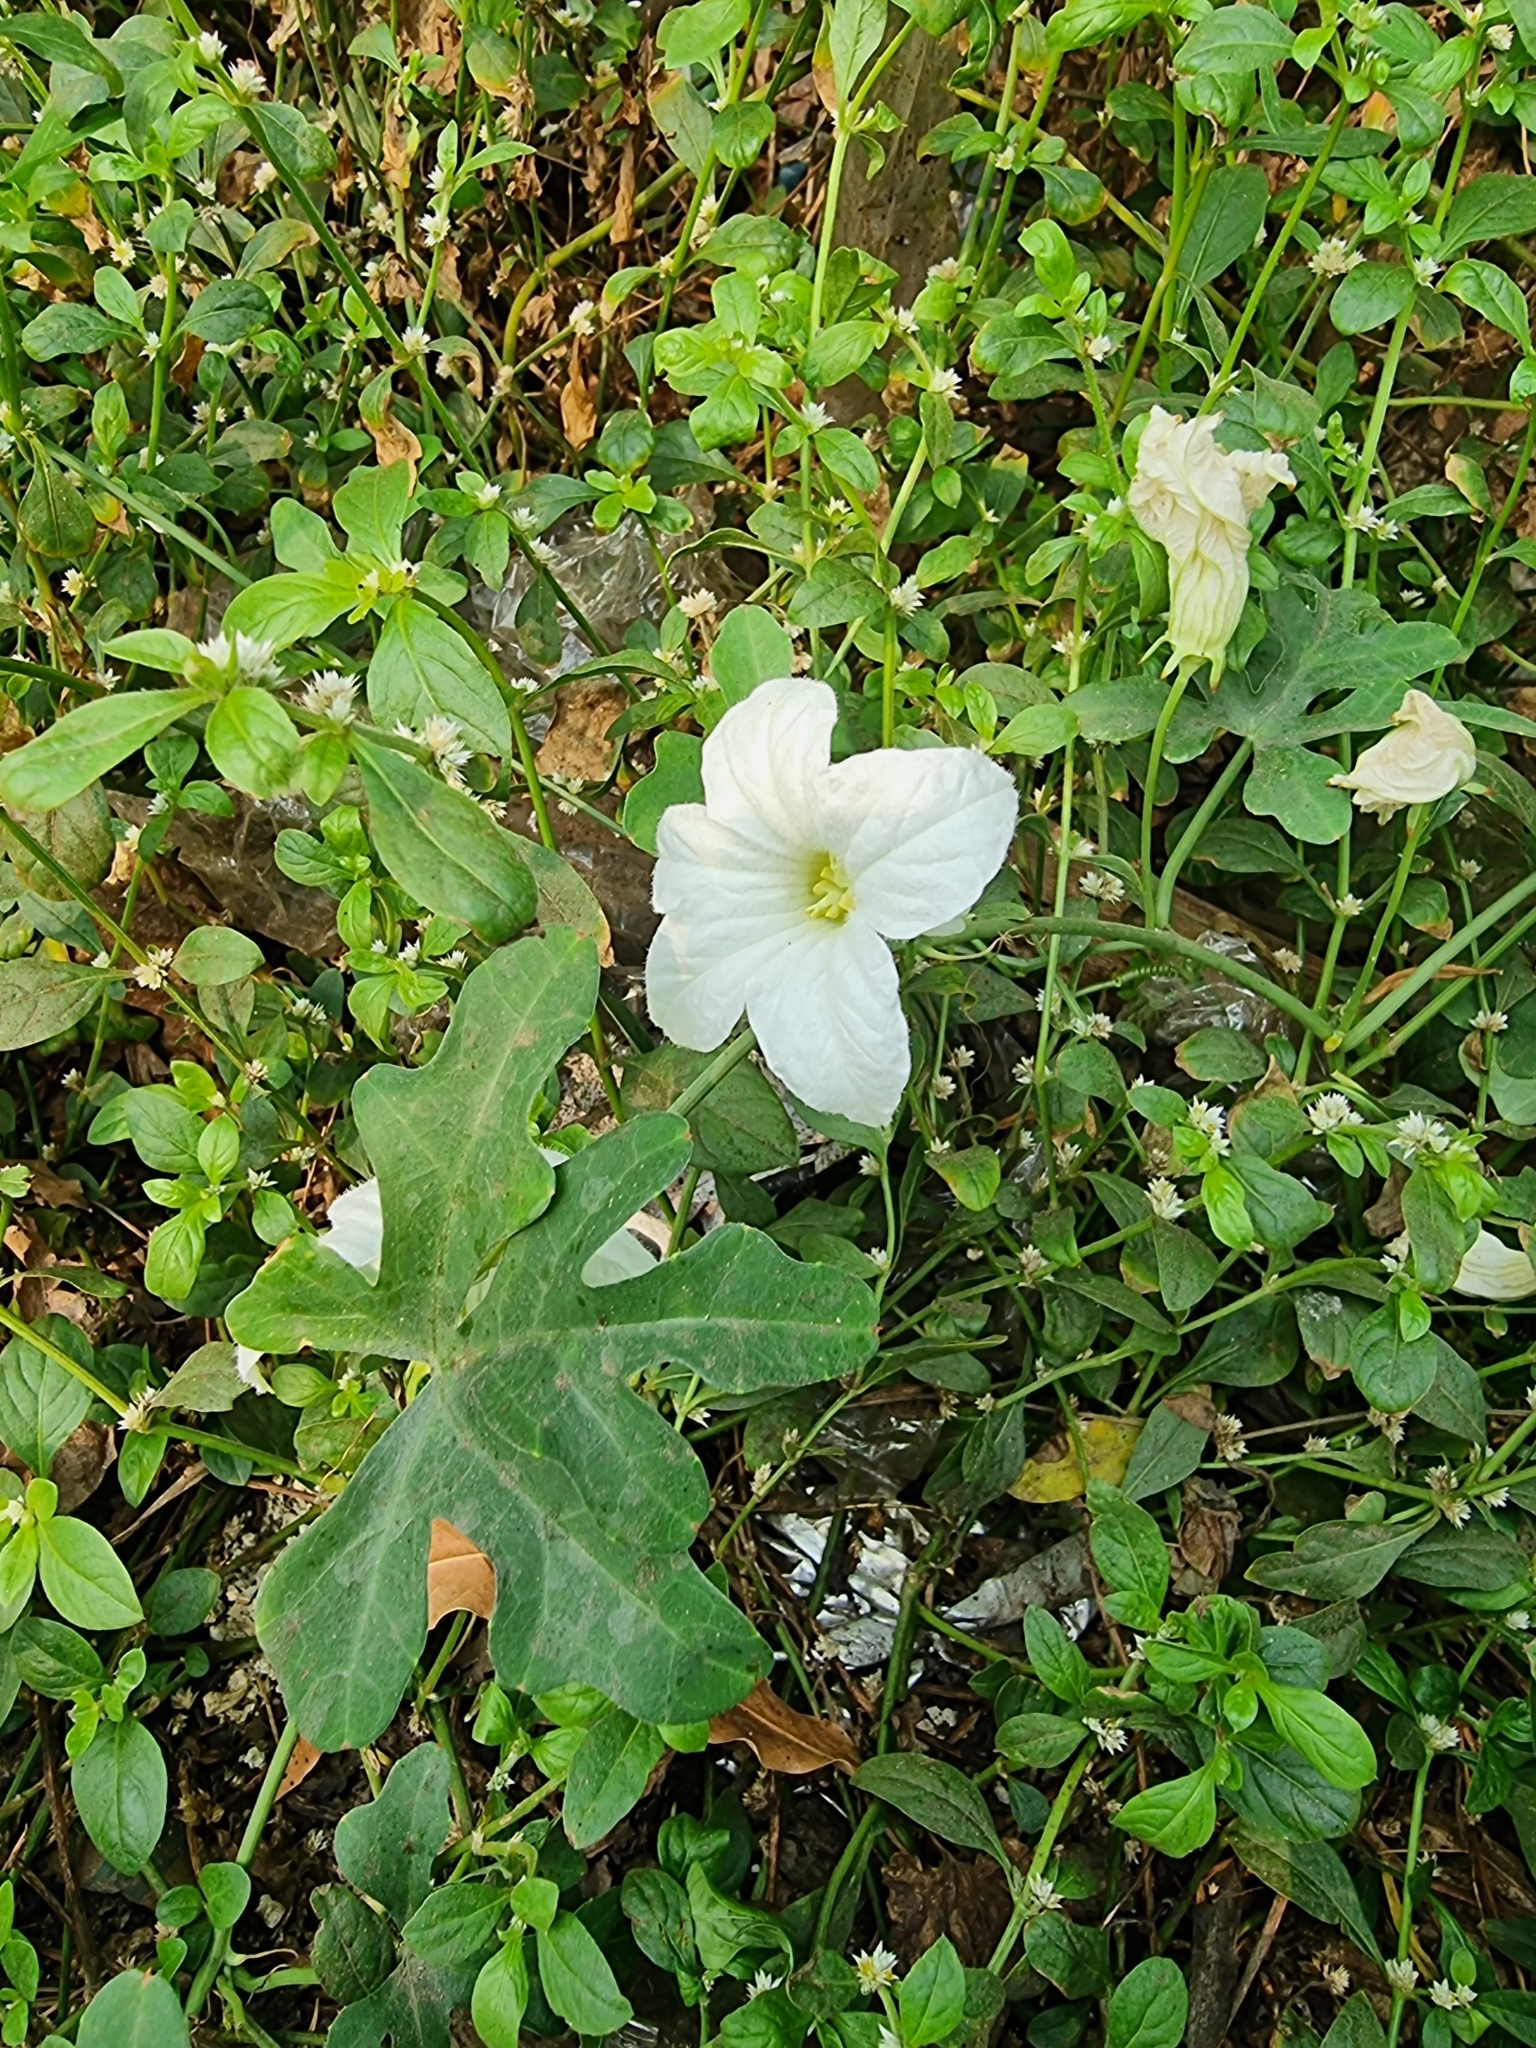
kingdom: Plantae
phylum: Tracheophyta
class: Magnoliopsida
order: Cucurbitales
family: Cucurbitaceae
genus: Coccinia
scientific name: Coccinia grandis
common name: Ivy gourd
